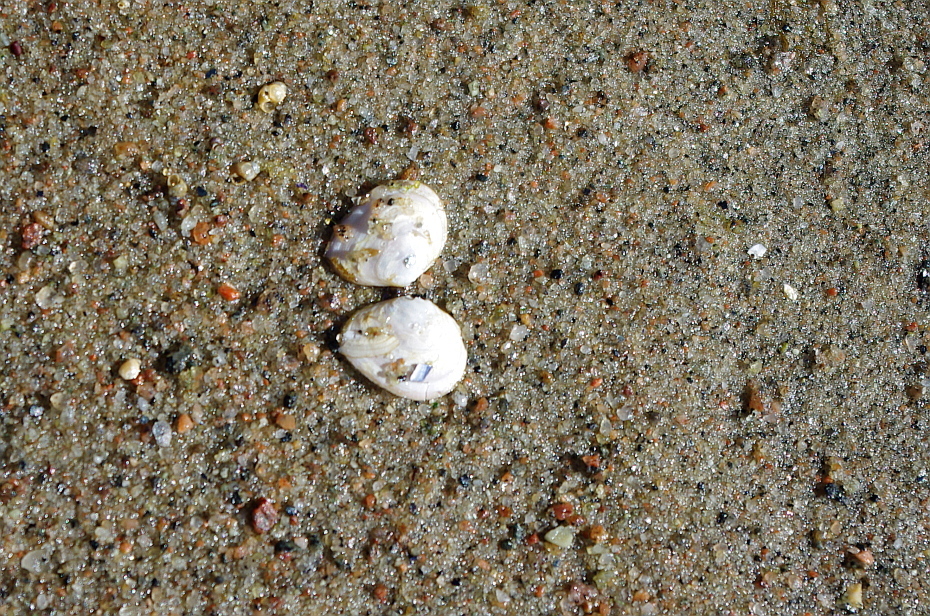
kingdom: Animalia
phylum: Mollusca
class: Bivalvia
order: Cardiida
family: Tellinidae
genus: Macoma
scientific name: Macoma balthica
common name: Baltic tellin
